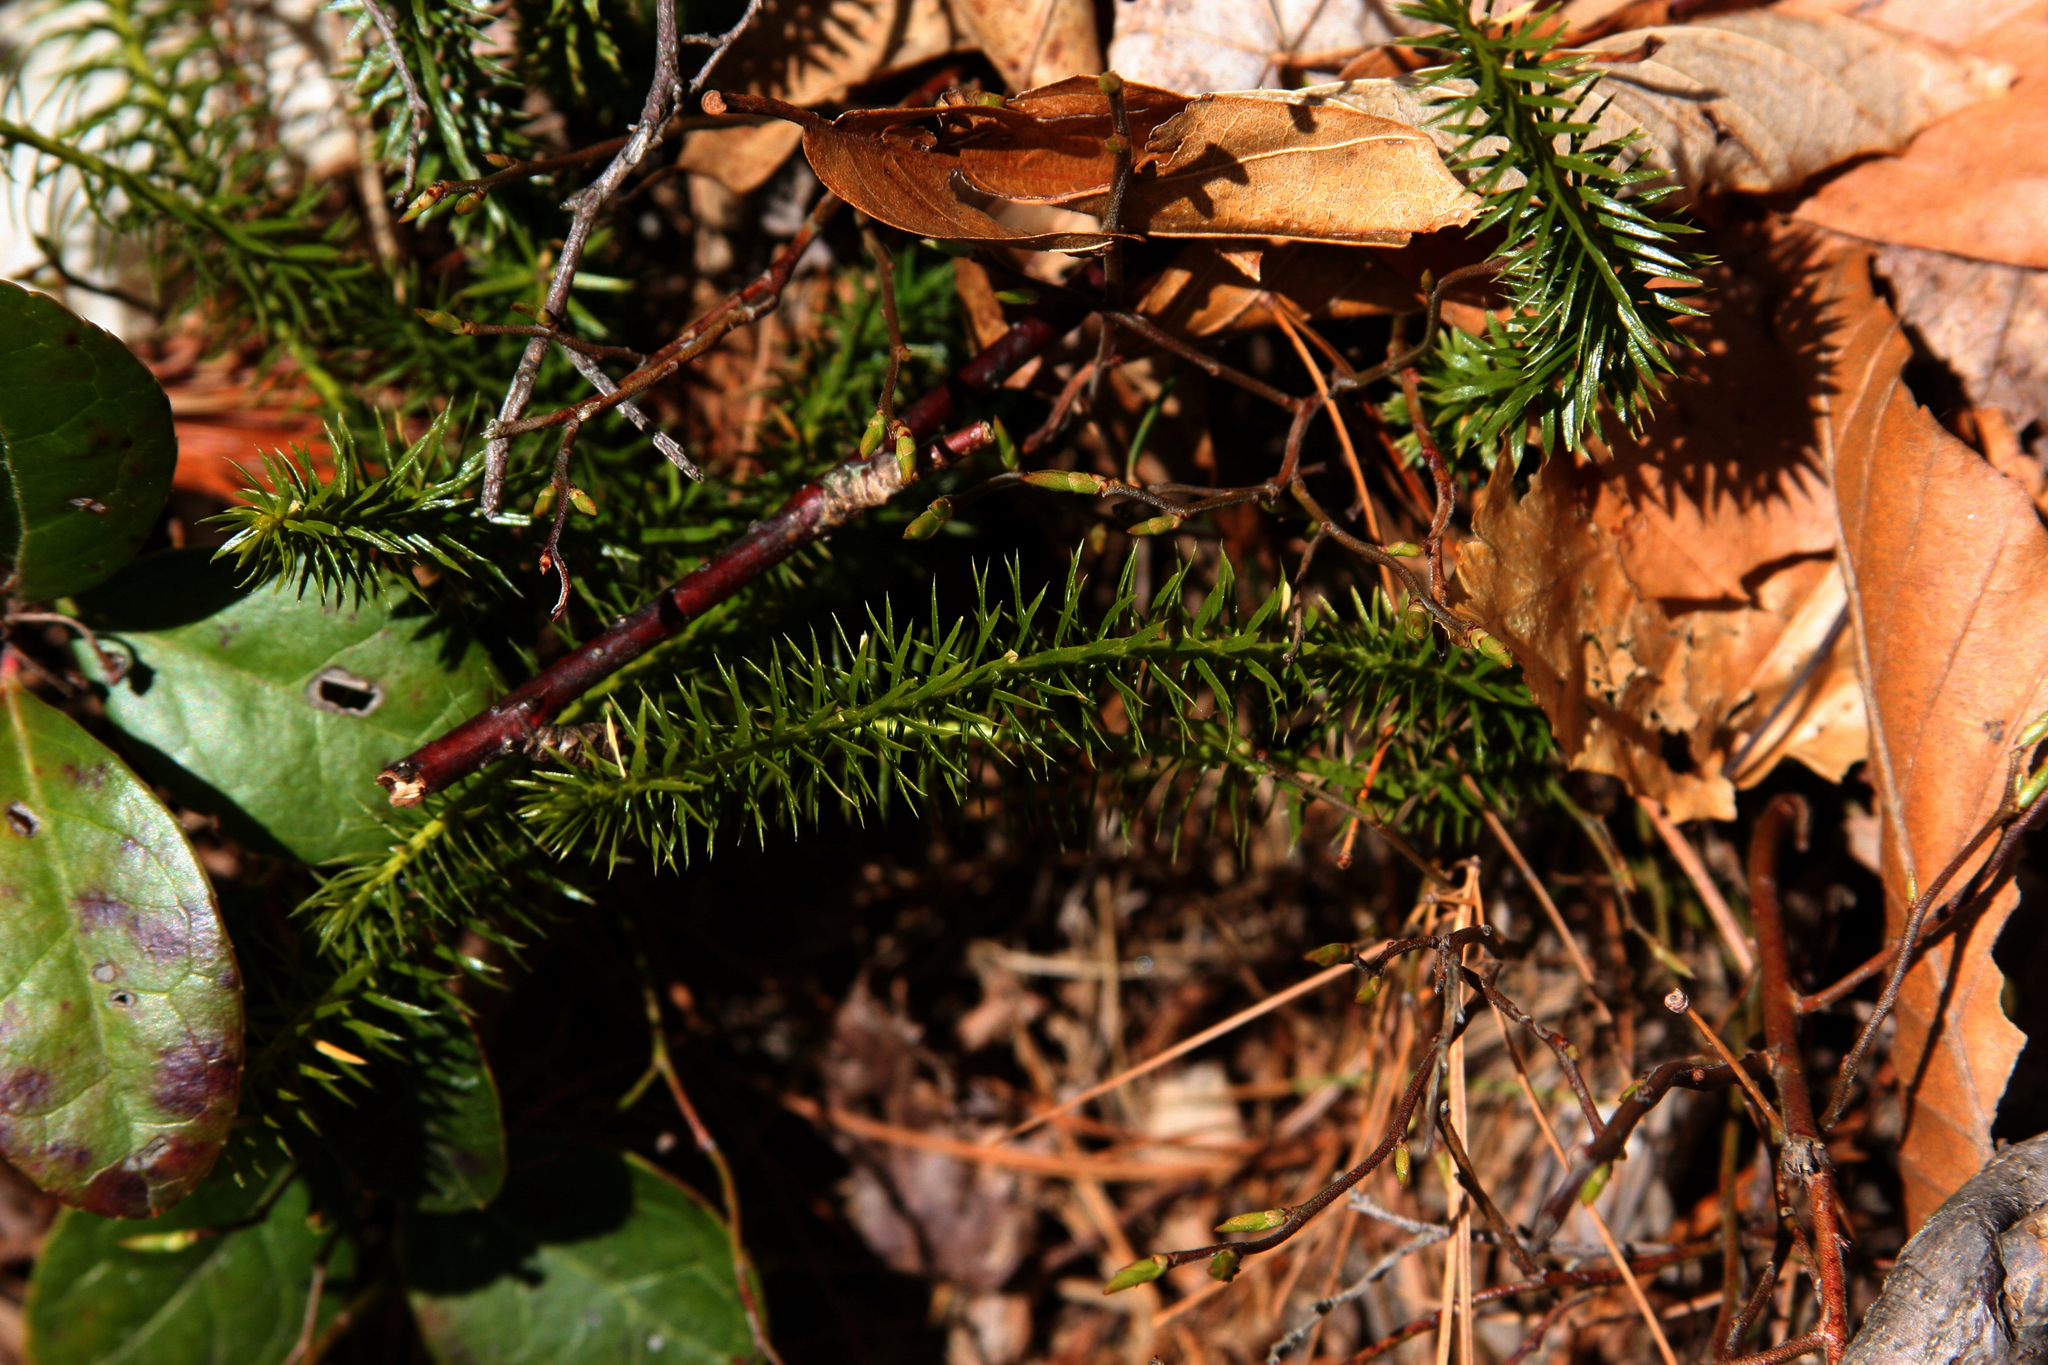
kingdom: Plantae
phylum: Tracheophyta
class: Lycopodiopsida
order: Lycopodiales
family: Lycopodiaceae
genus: Spinulum
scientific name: Spinulum annotinum
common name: Interrupted club-moss
